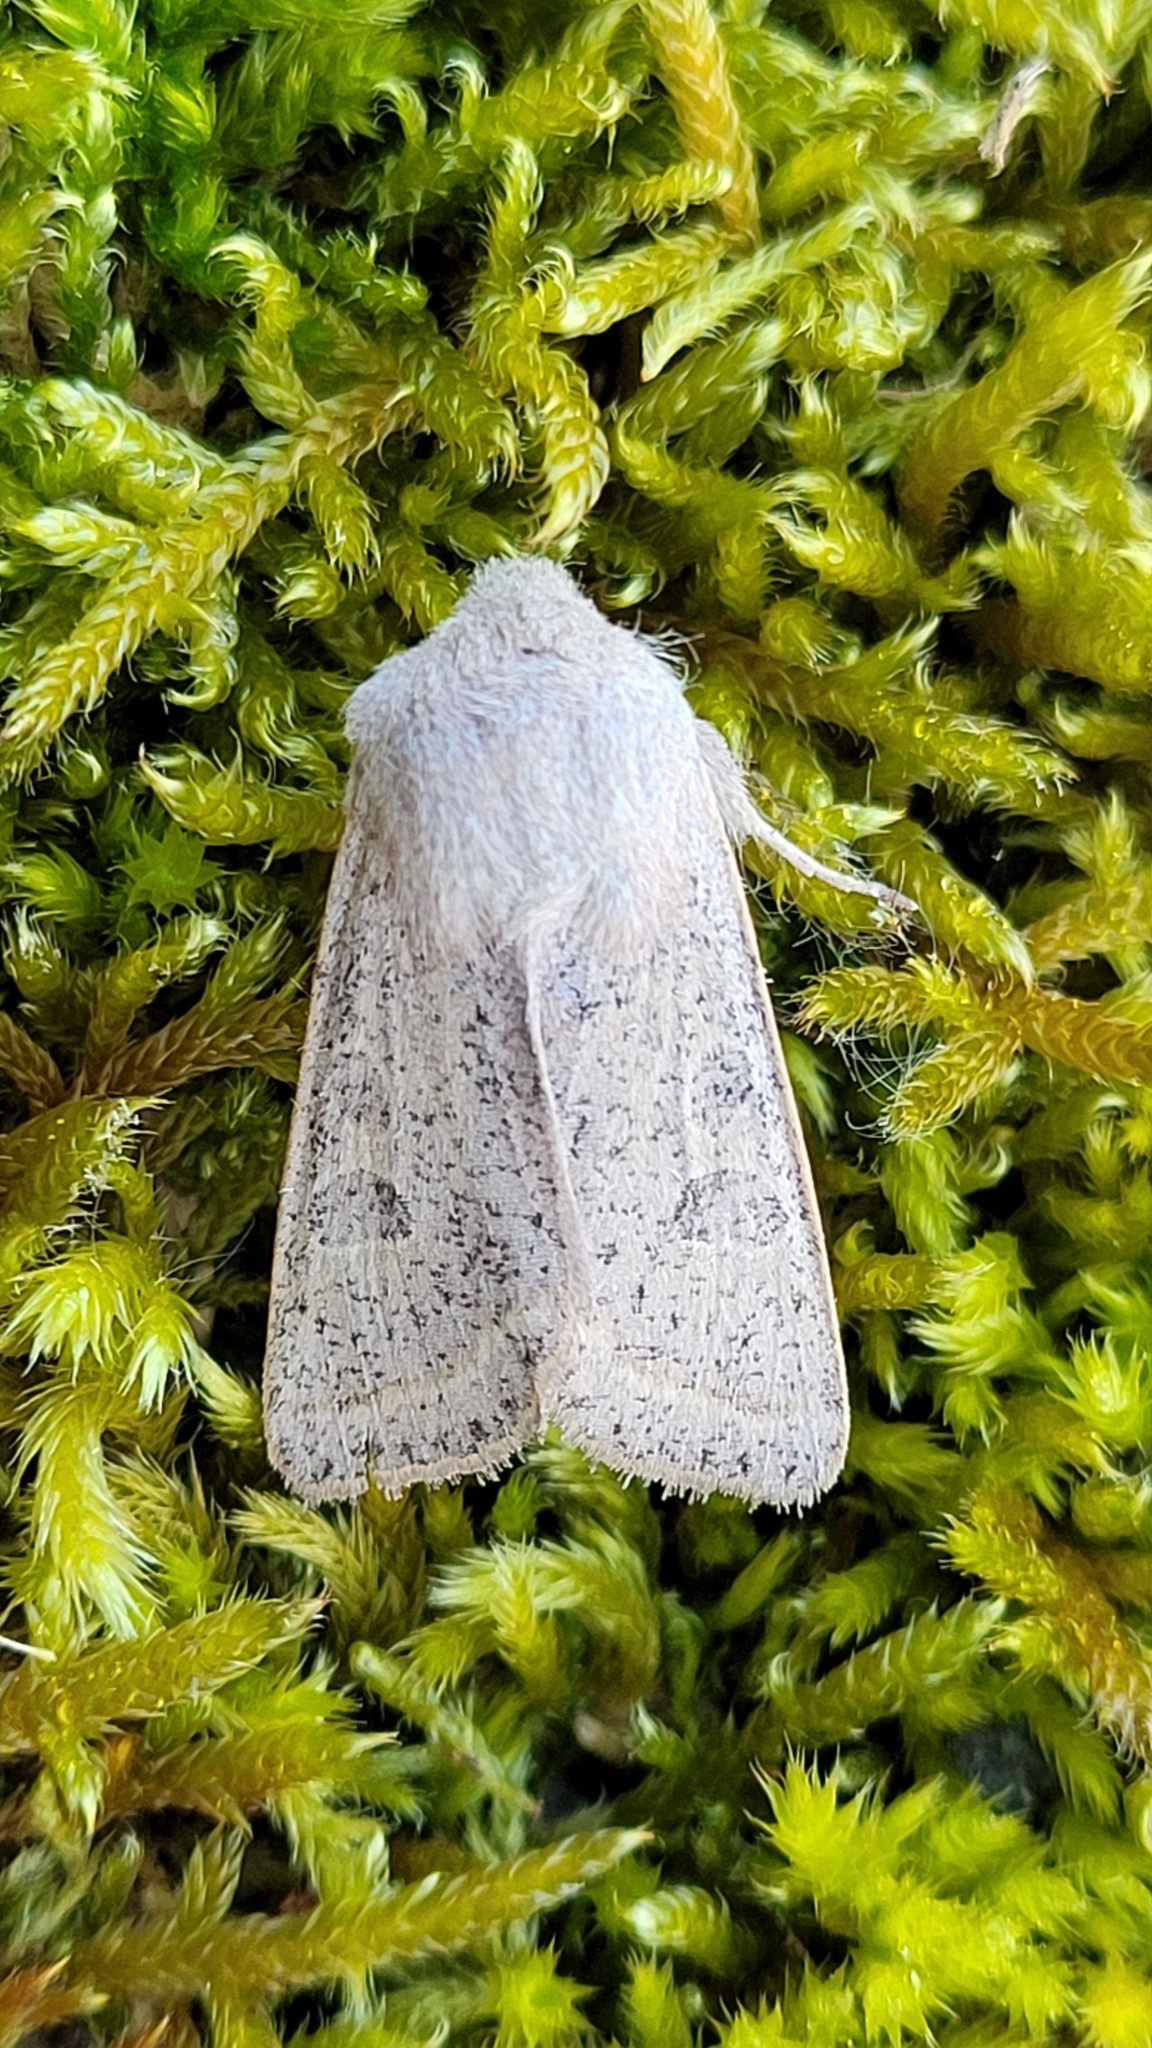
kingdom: Animalia
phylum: Arthropoda
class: Insecta
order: Lepidoptera
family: Noctuidae
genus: Orthosia
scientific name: Orthosia gracilis
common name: Powdered quaker
